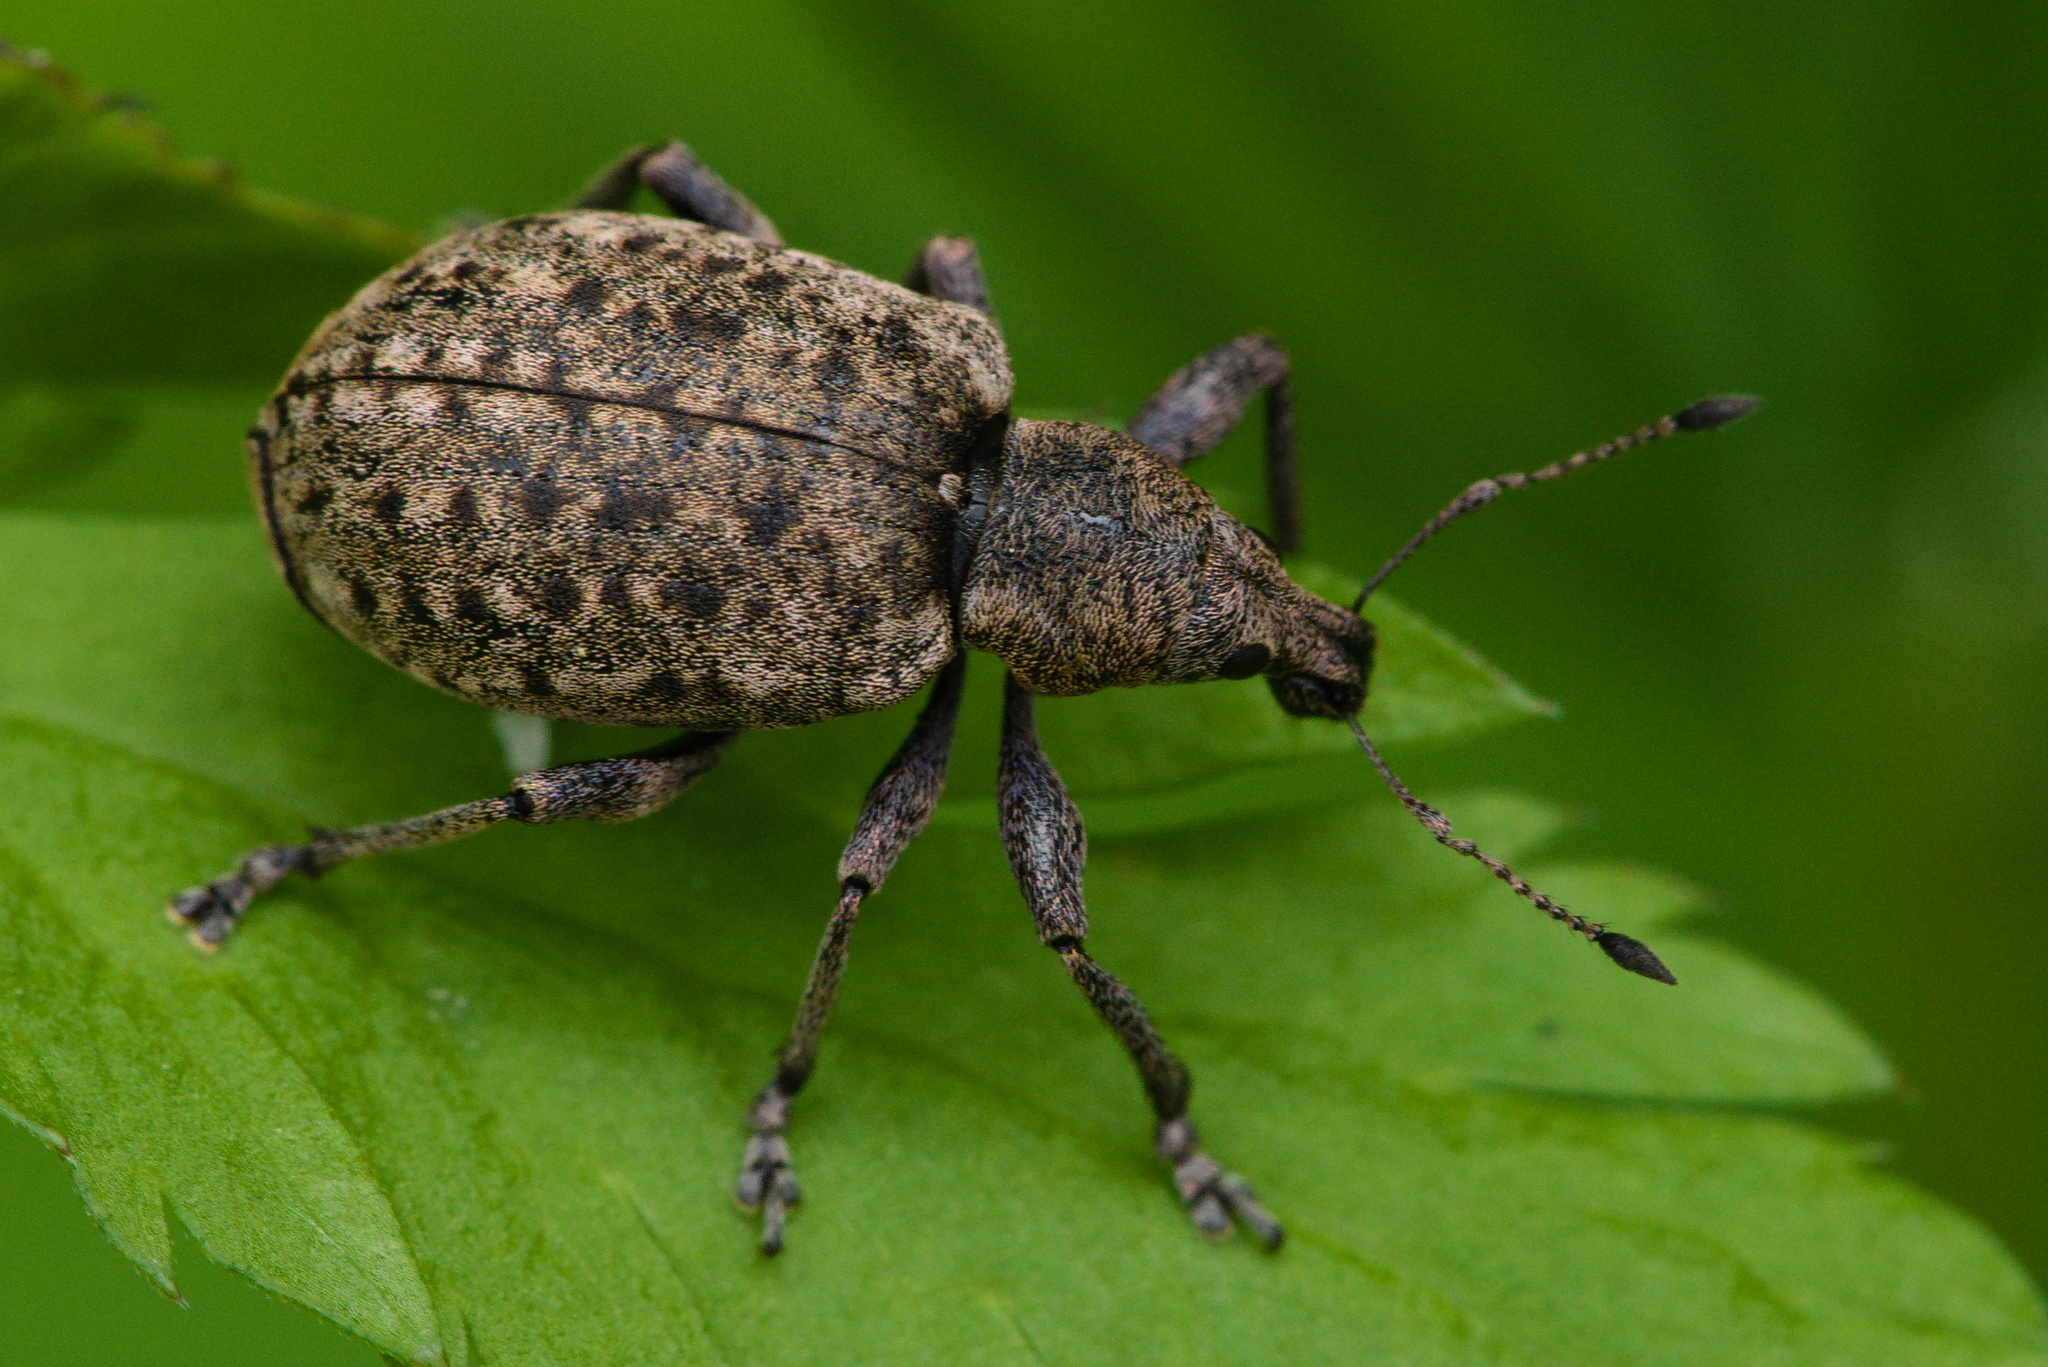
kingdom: Animalia
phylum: Arthropoda
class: Insecta
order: Coleoptera
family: Curculionidae
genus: Liophloeus
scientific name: Liophloeus tessulatus
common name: Weevil
